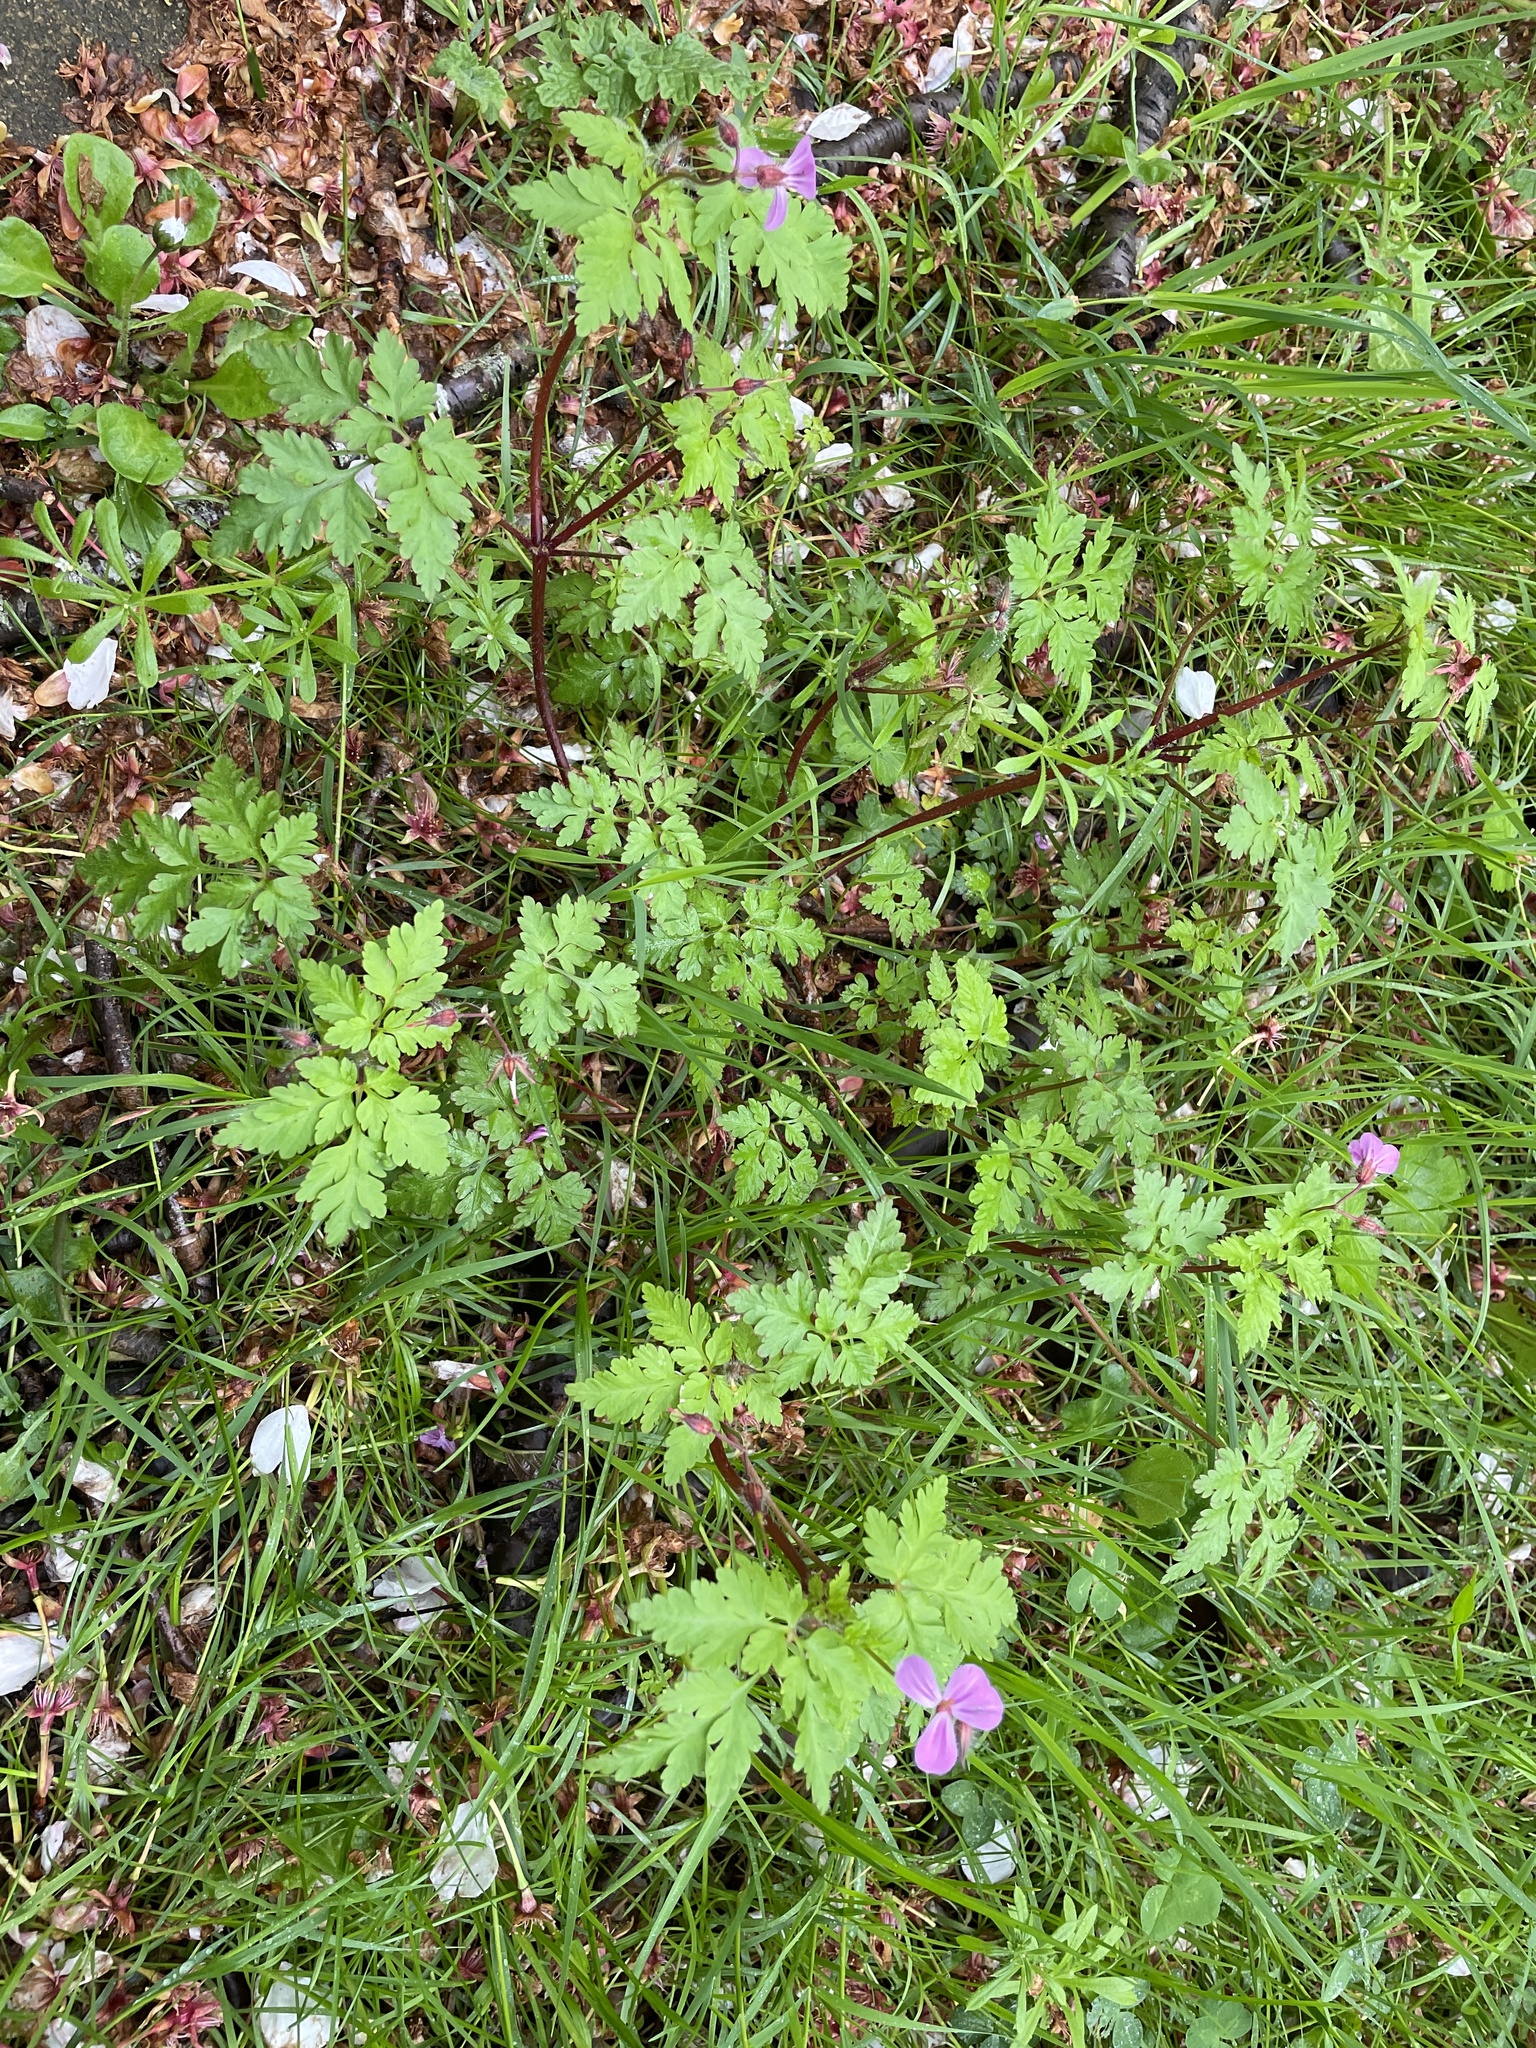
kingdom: Plantae
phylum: Tracheophyta
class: Magnoliopsida
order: Geraniales
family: Geraniaceae
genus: Geranium
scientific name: Geranium robertianum
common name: Herb-robert
